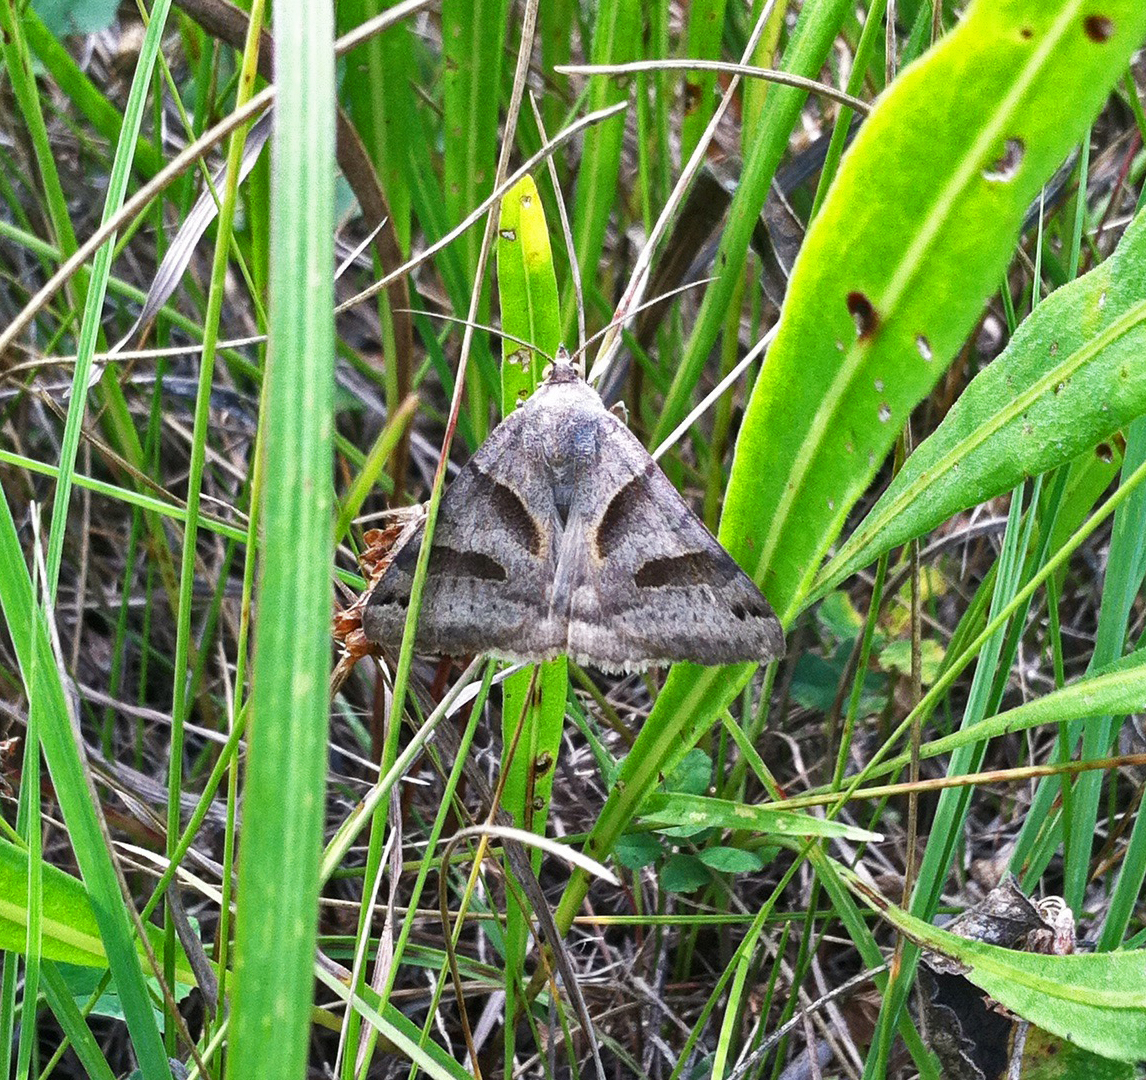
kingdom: Animalia
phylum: Arthropoda
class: Insecta
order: Lepidoptera
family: Erebidae
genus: Caenurgina
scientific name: Caenurgina erechtea
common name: Forage looper moth
